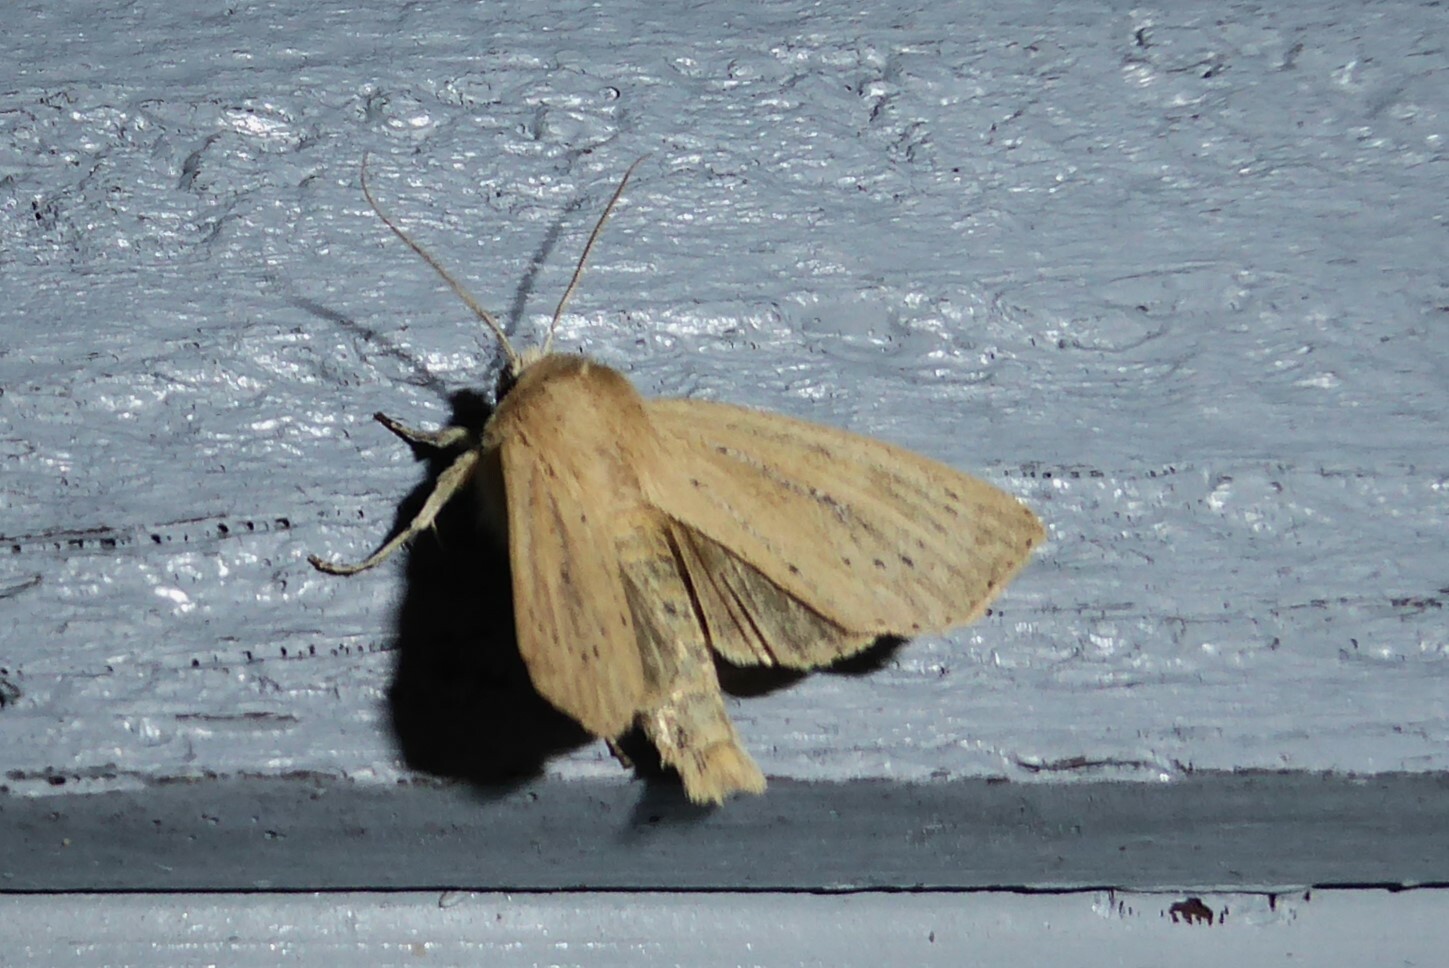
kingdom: Animalia
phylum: Arthropoda
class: Insecta
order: Lepidoptera
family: Noctuidae
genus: Ichneutica
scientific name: Ichneutica
